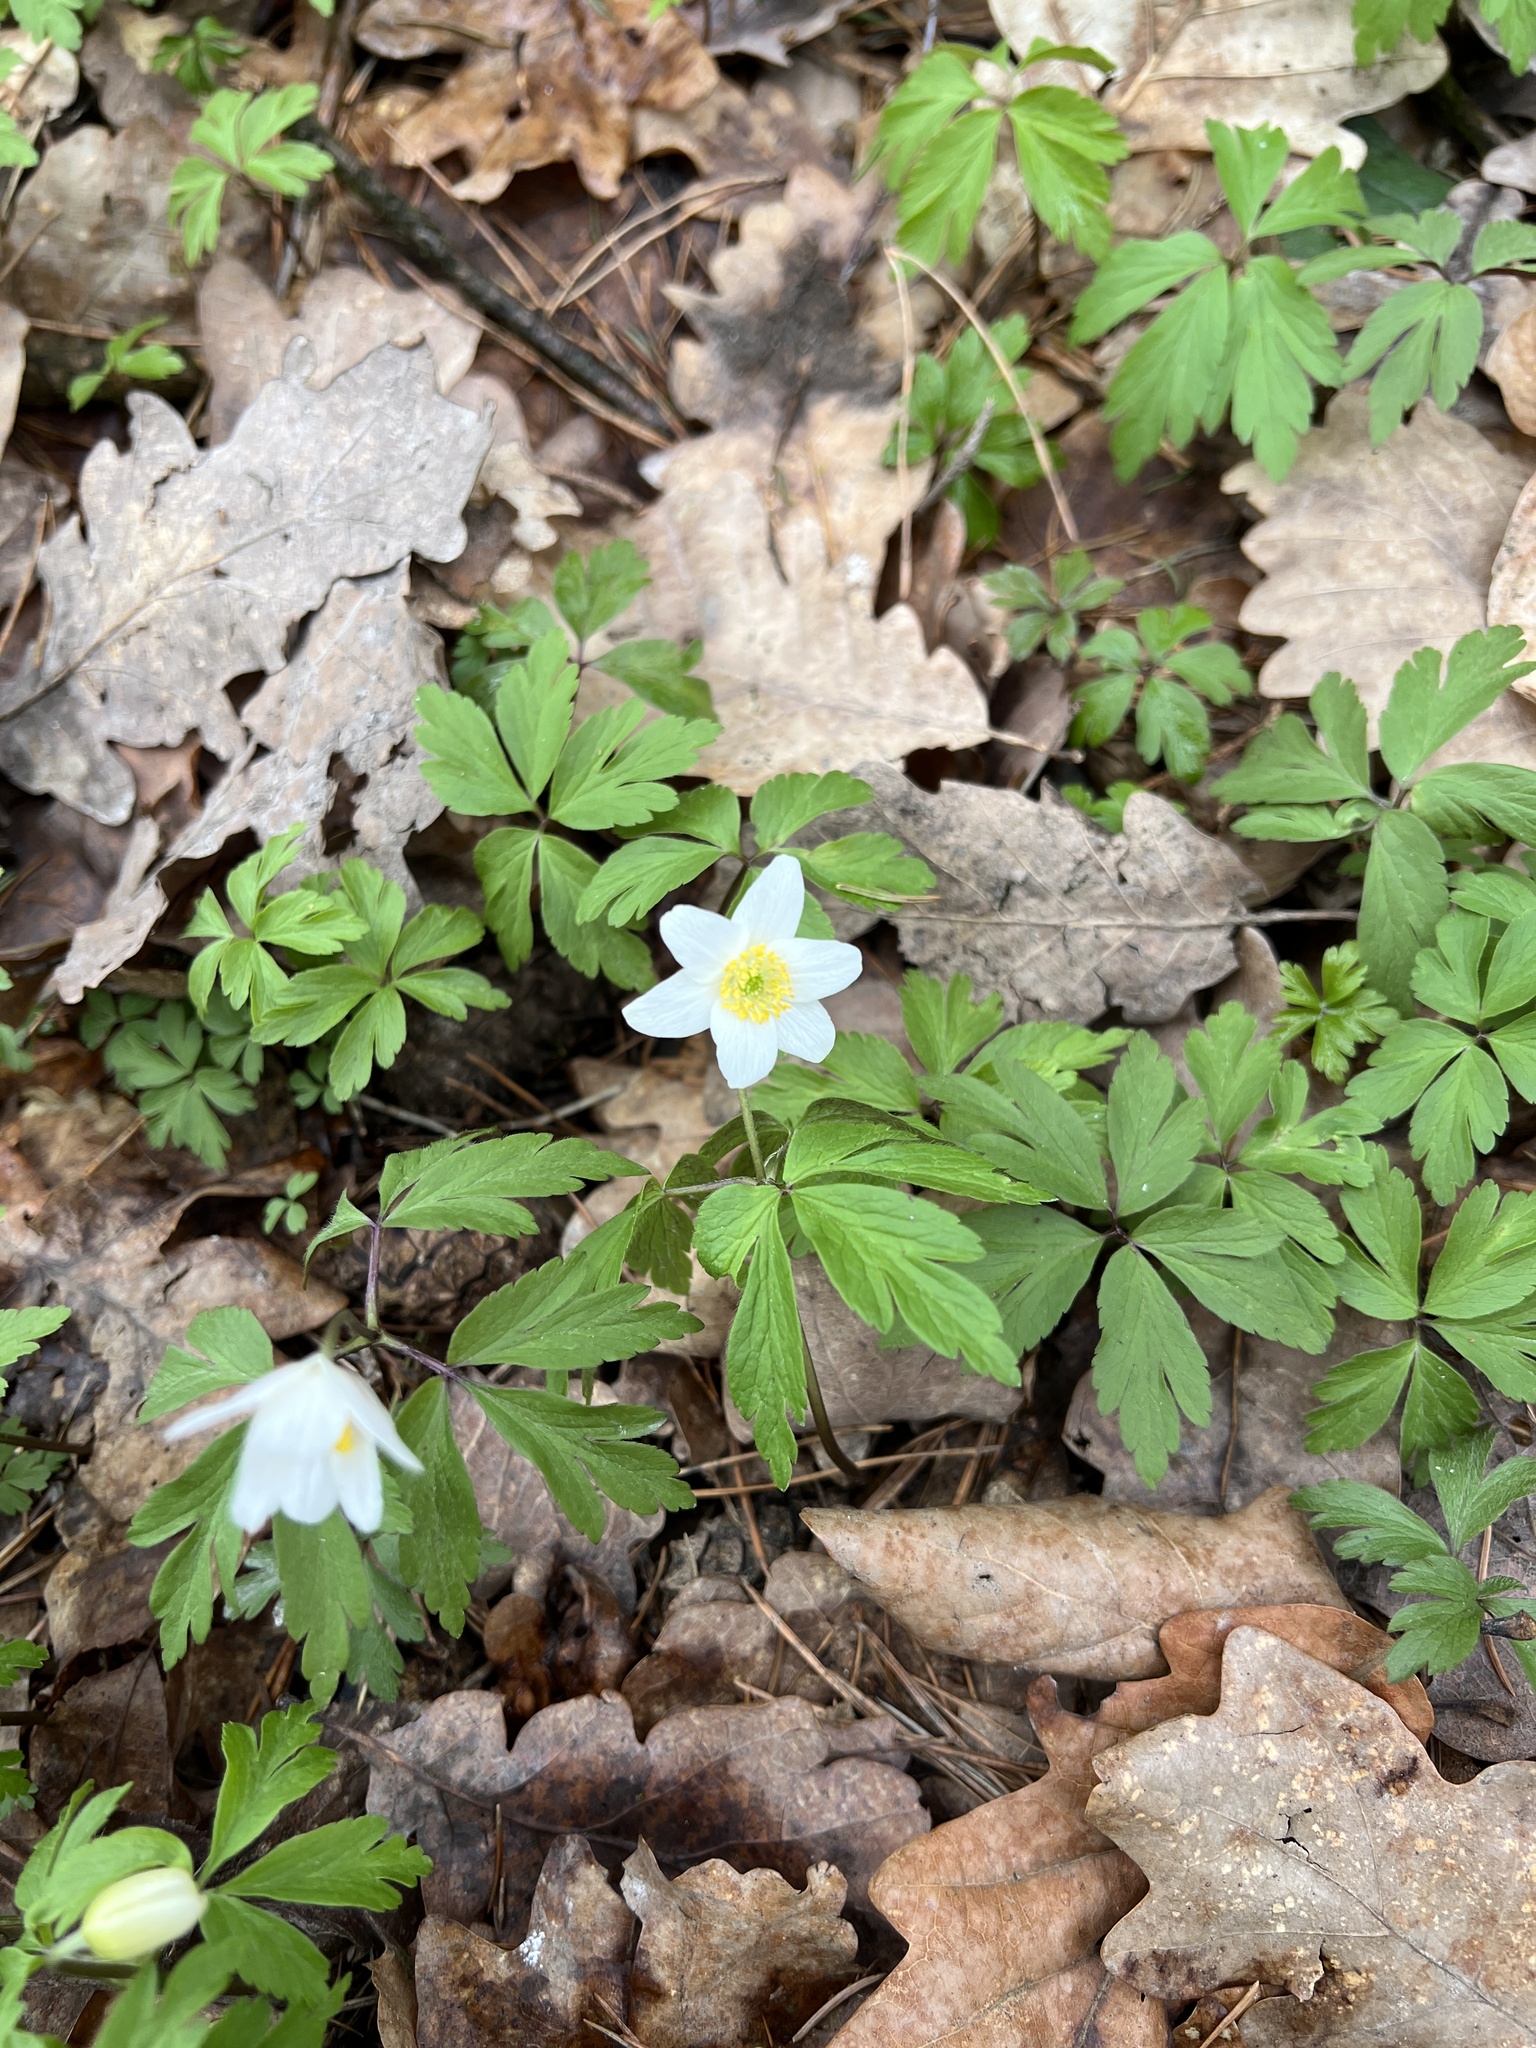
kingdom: Plantae
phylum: Tracheophyta
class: Magnoliopsida
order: Ranunculales
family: Ranunculaceae
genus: Anemone
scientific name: Anemone nemorosa
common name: Wood anemone
